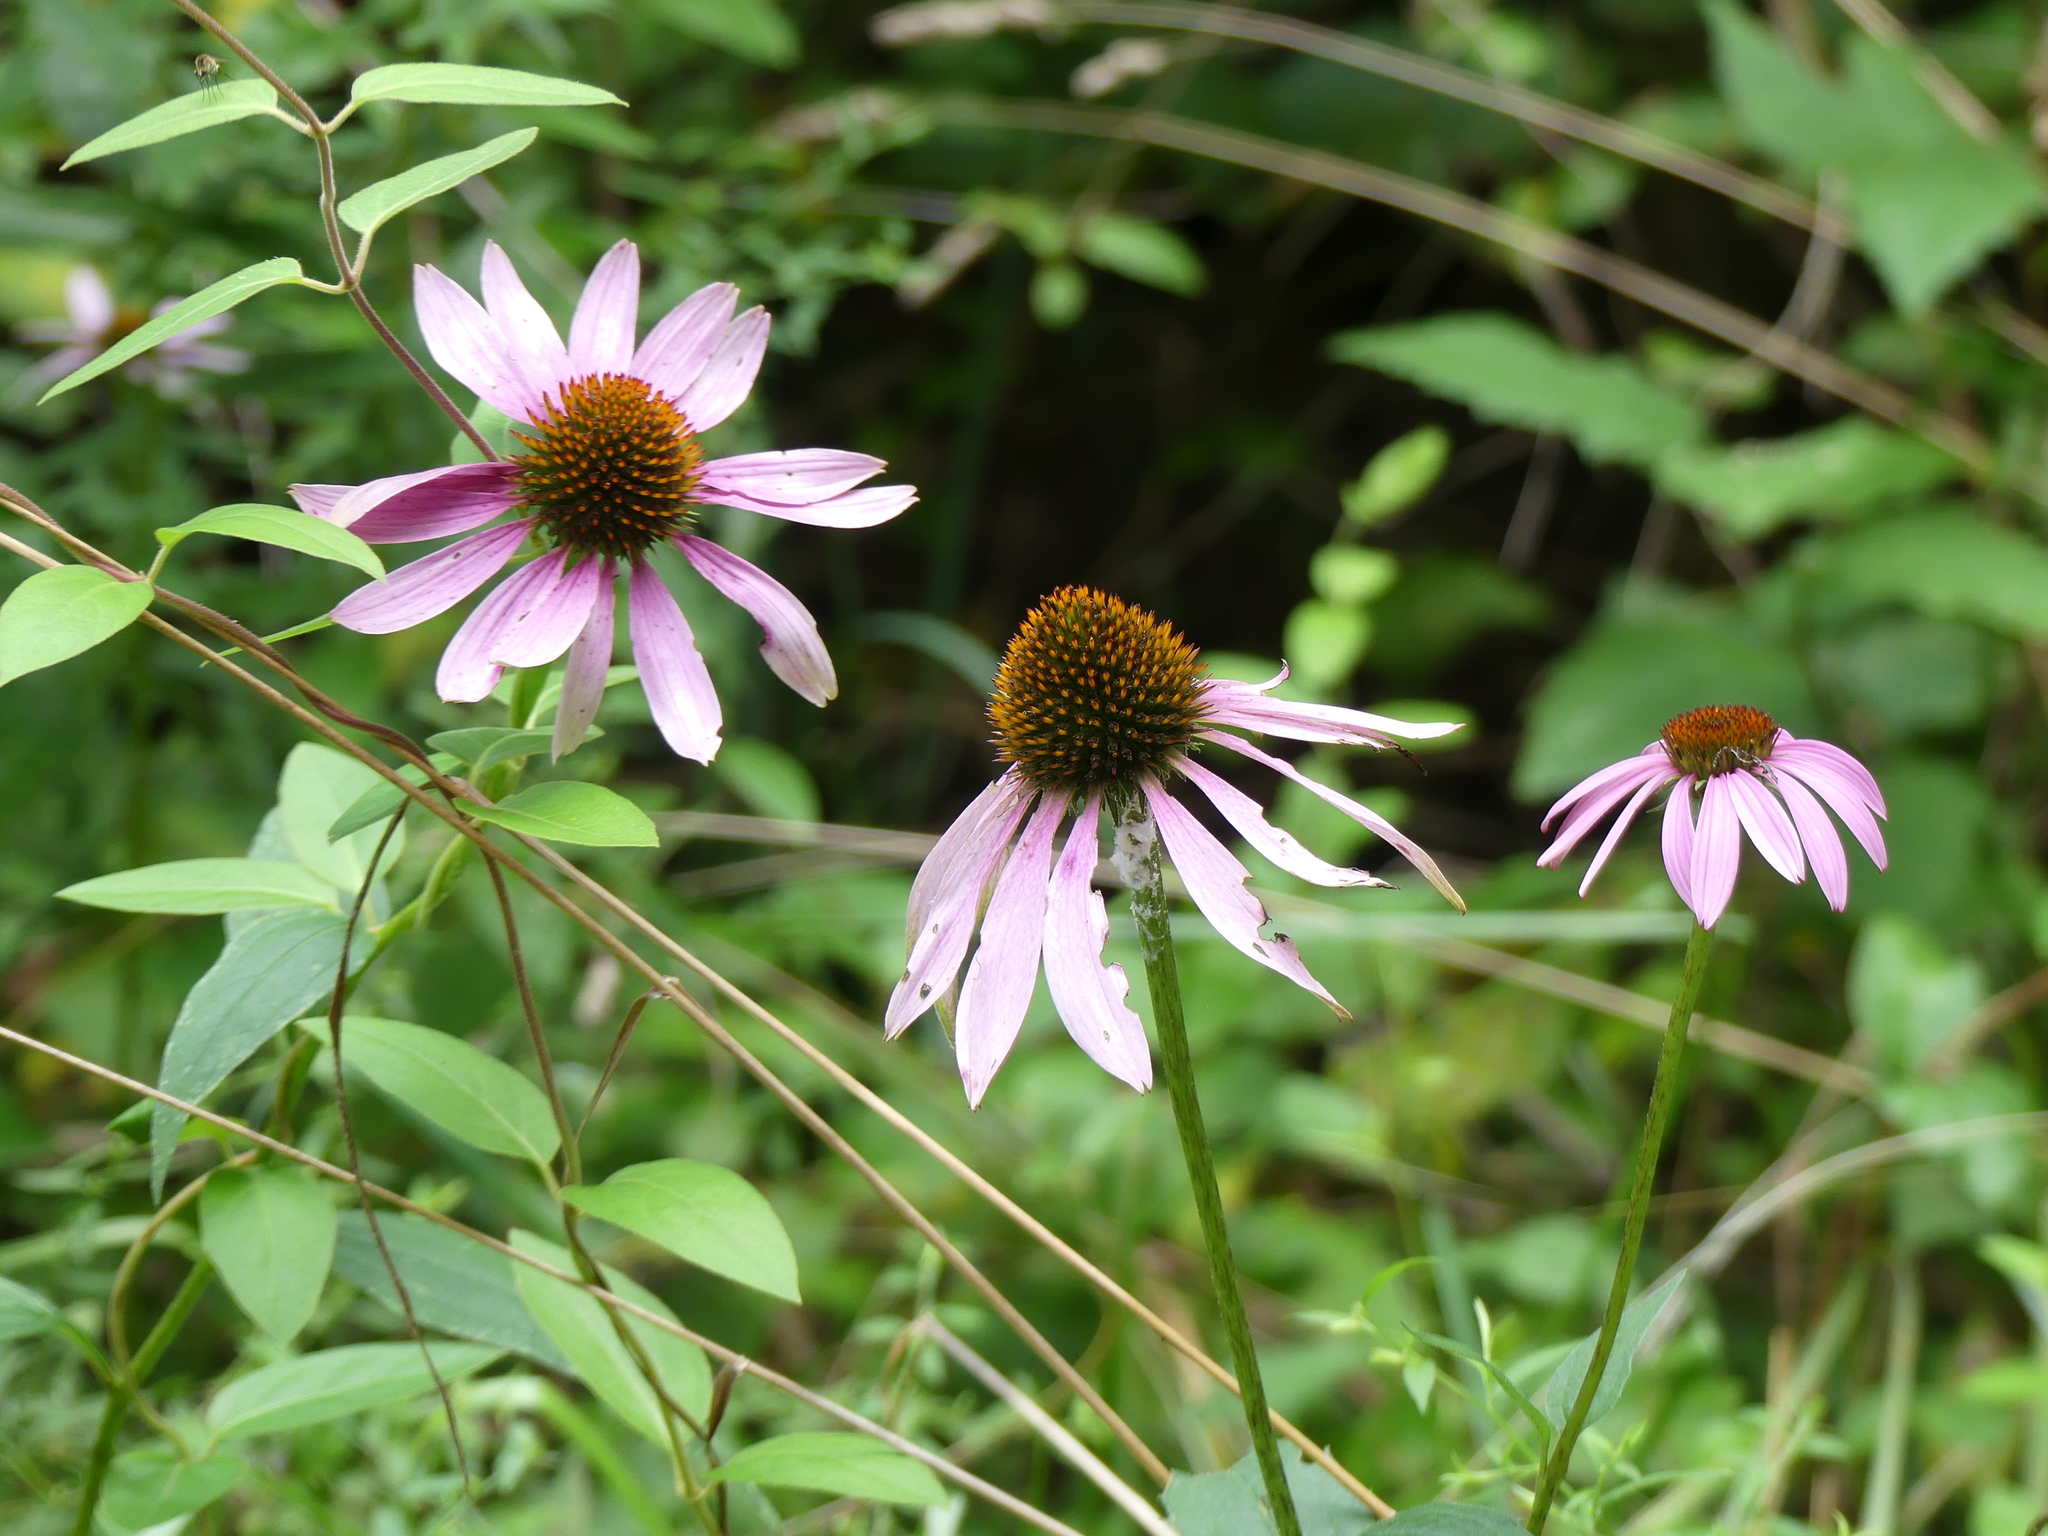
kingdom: Plantae
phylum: Tracheophyta
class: Magnoliopsida
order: Asterales
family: Asteraceae
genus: Echinacea
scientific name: Echinacea purpurea
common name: Broad-leaved purple coneflower
